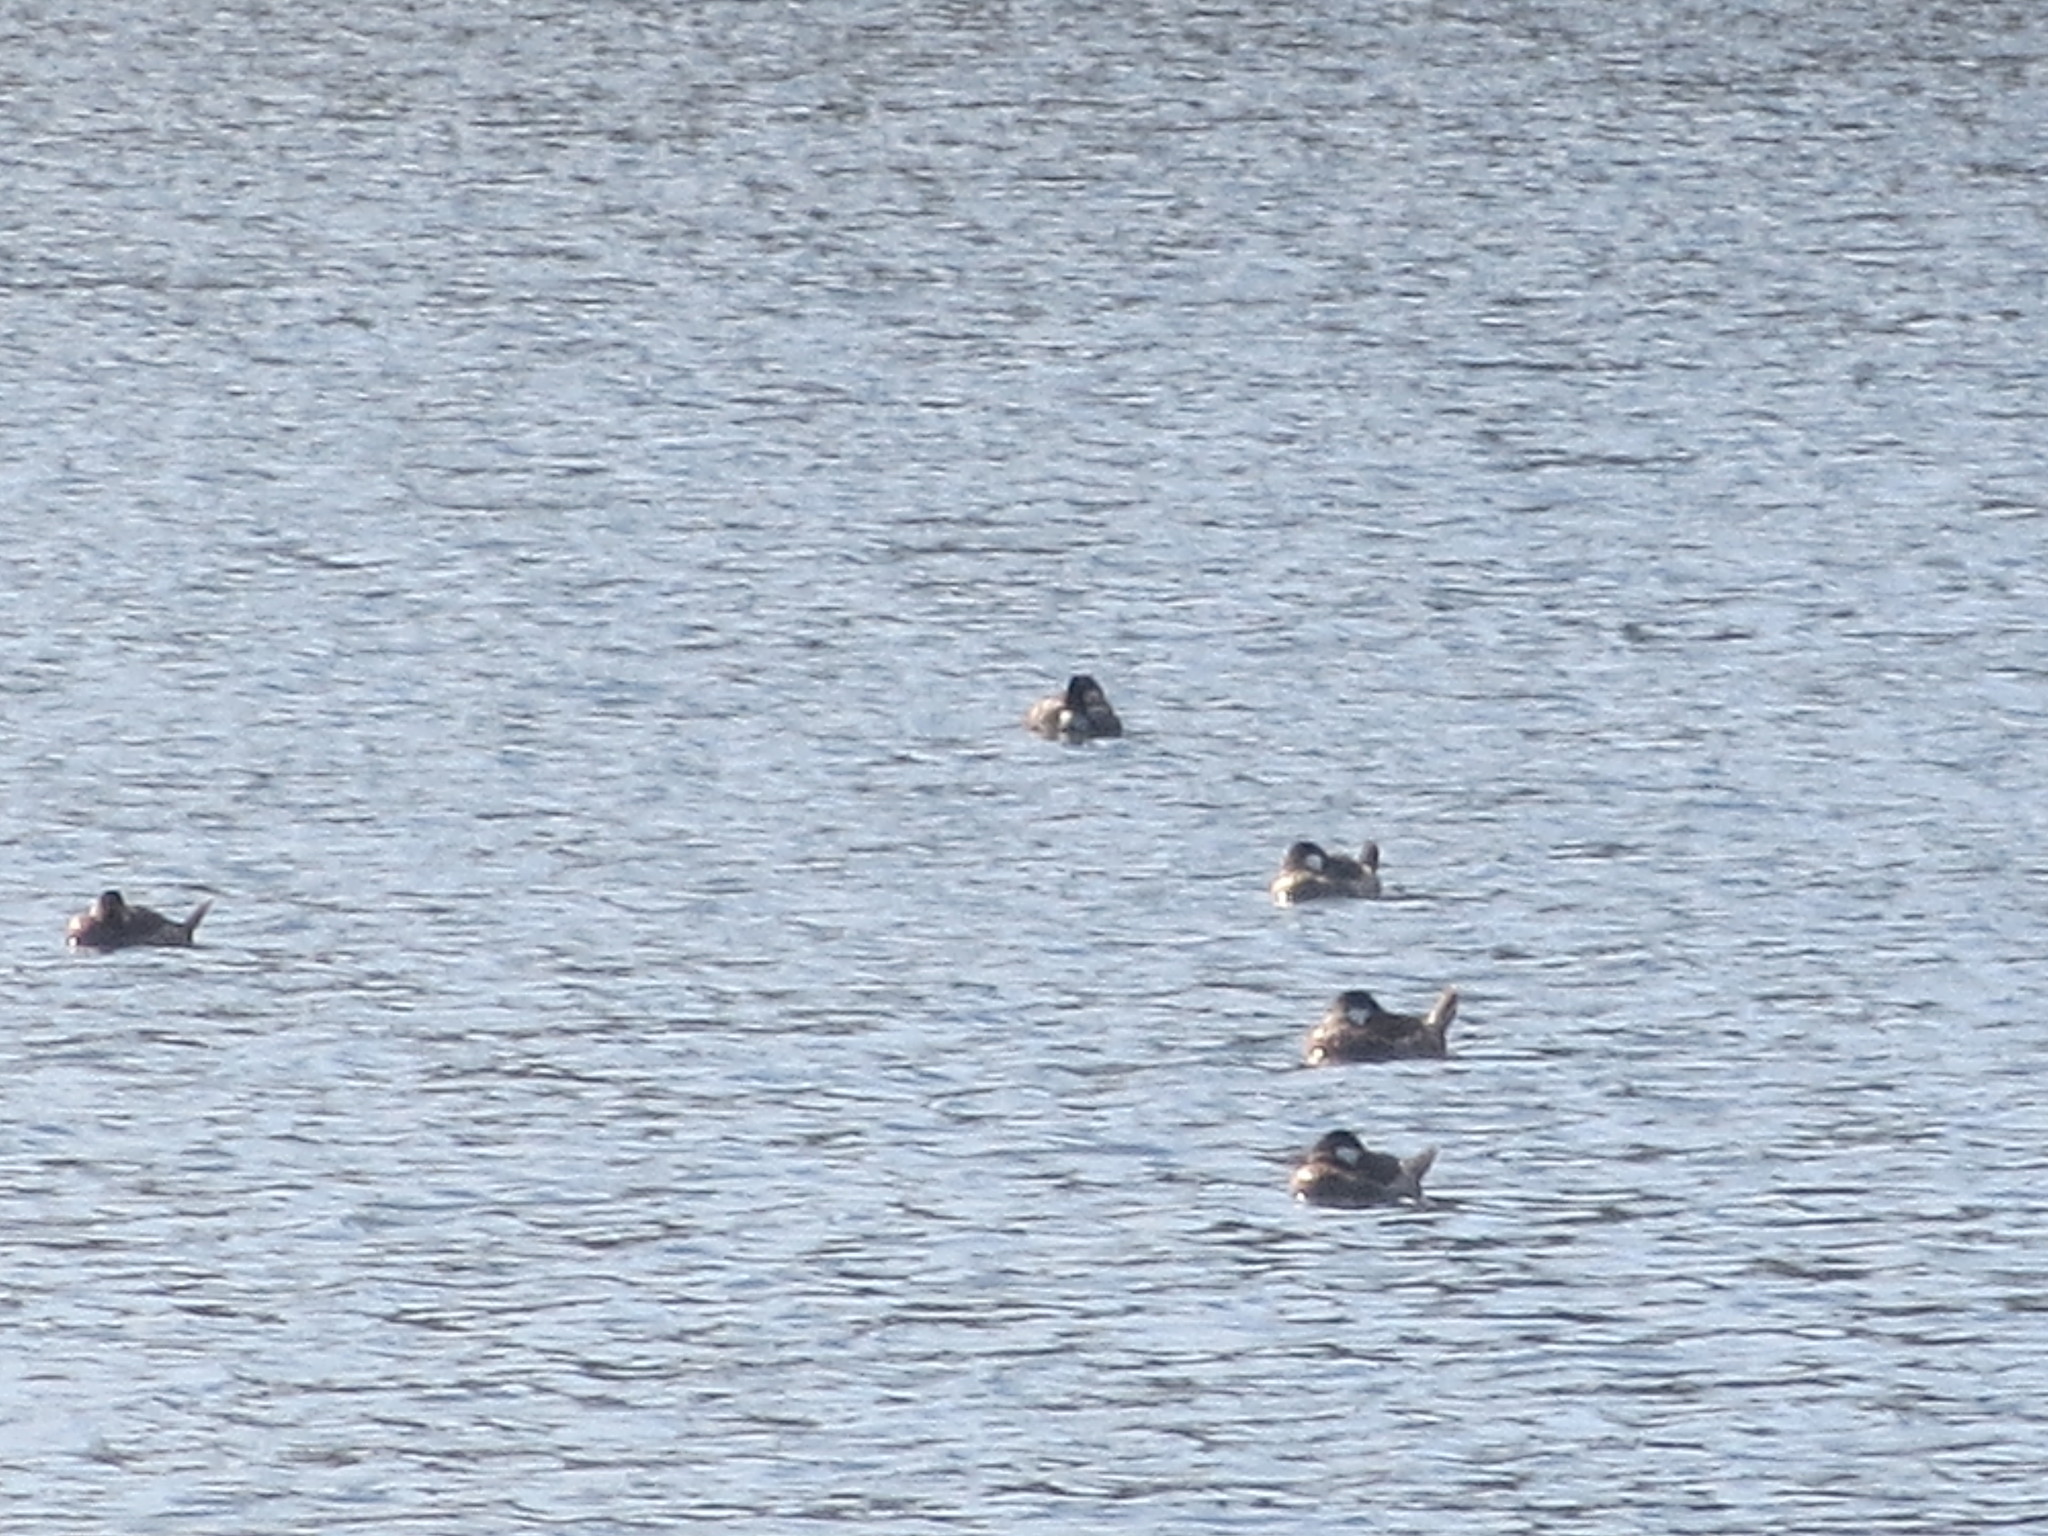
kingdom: Animalia
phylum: Chordata
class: Aves
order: Anseriformes
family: Anatidae
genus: Oxyura
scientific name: Oxyura jamaicensis
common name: Ruddy duck
